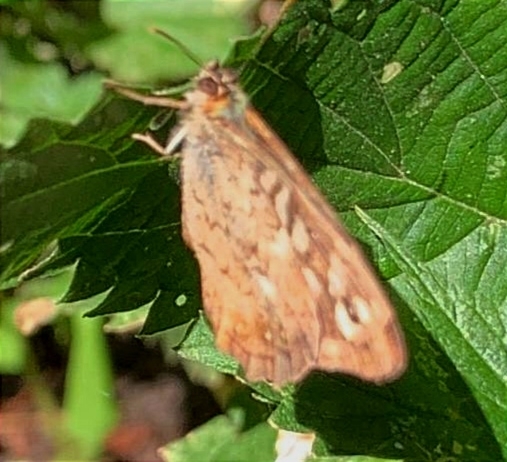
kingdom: Animalia
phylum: Arthropoda
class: Insecta
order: Lepidoptera
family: Nymphalidae
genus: Pararge
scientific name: Pararge aegeria
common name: Speckled wood
